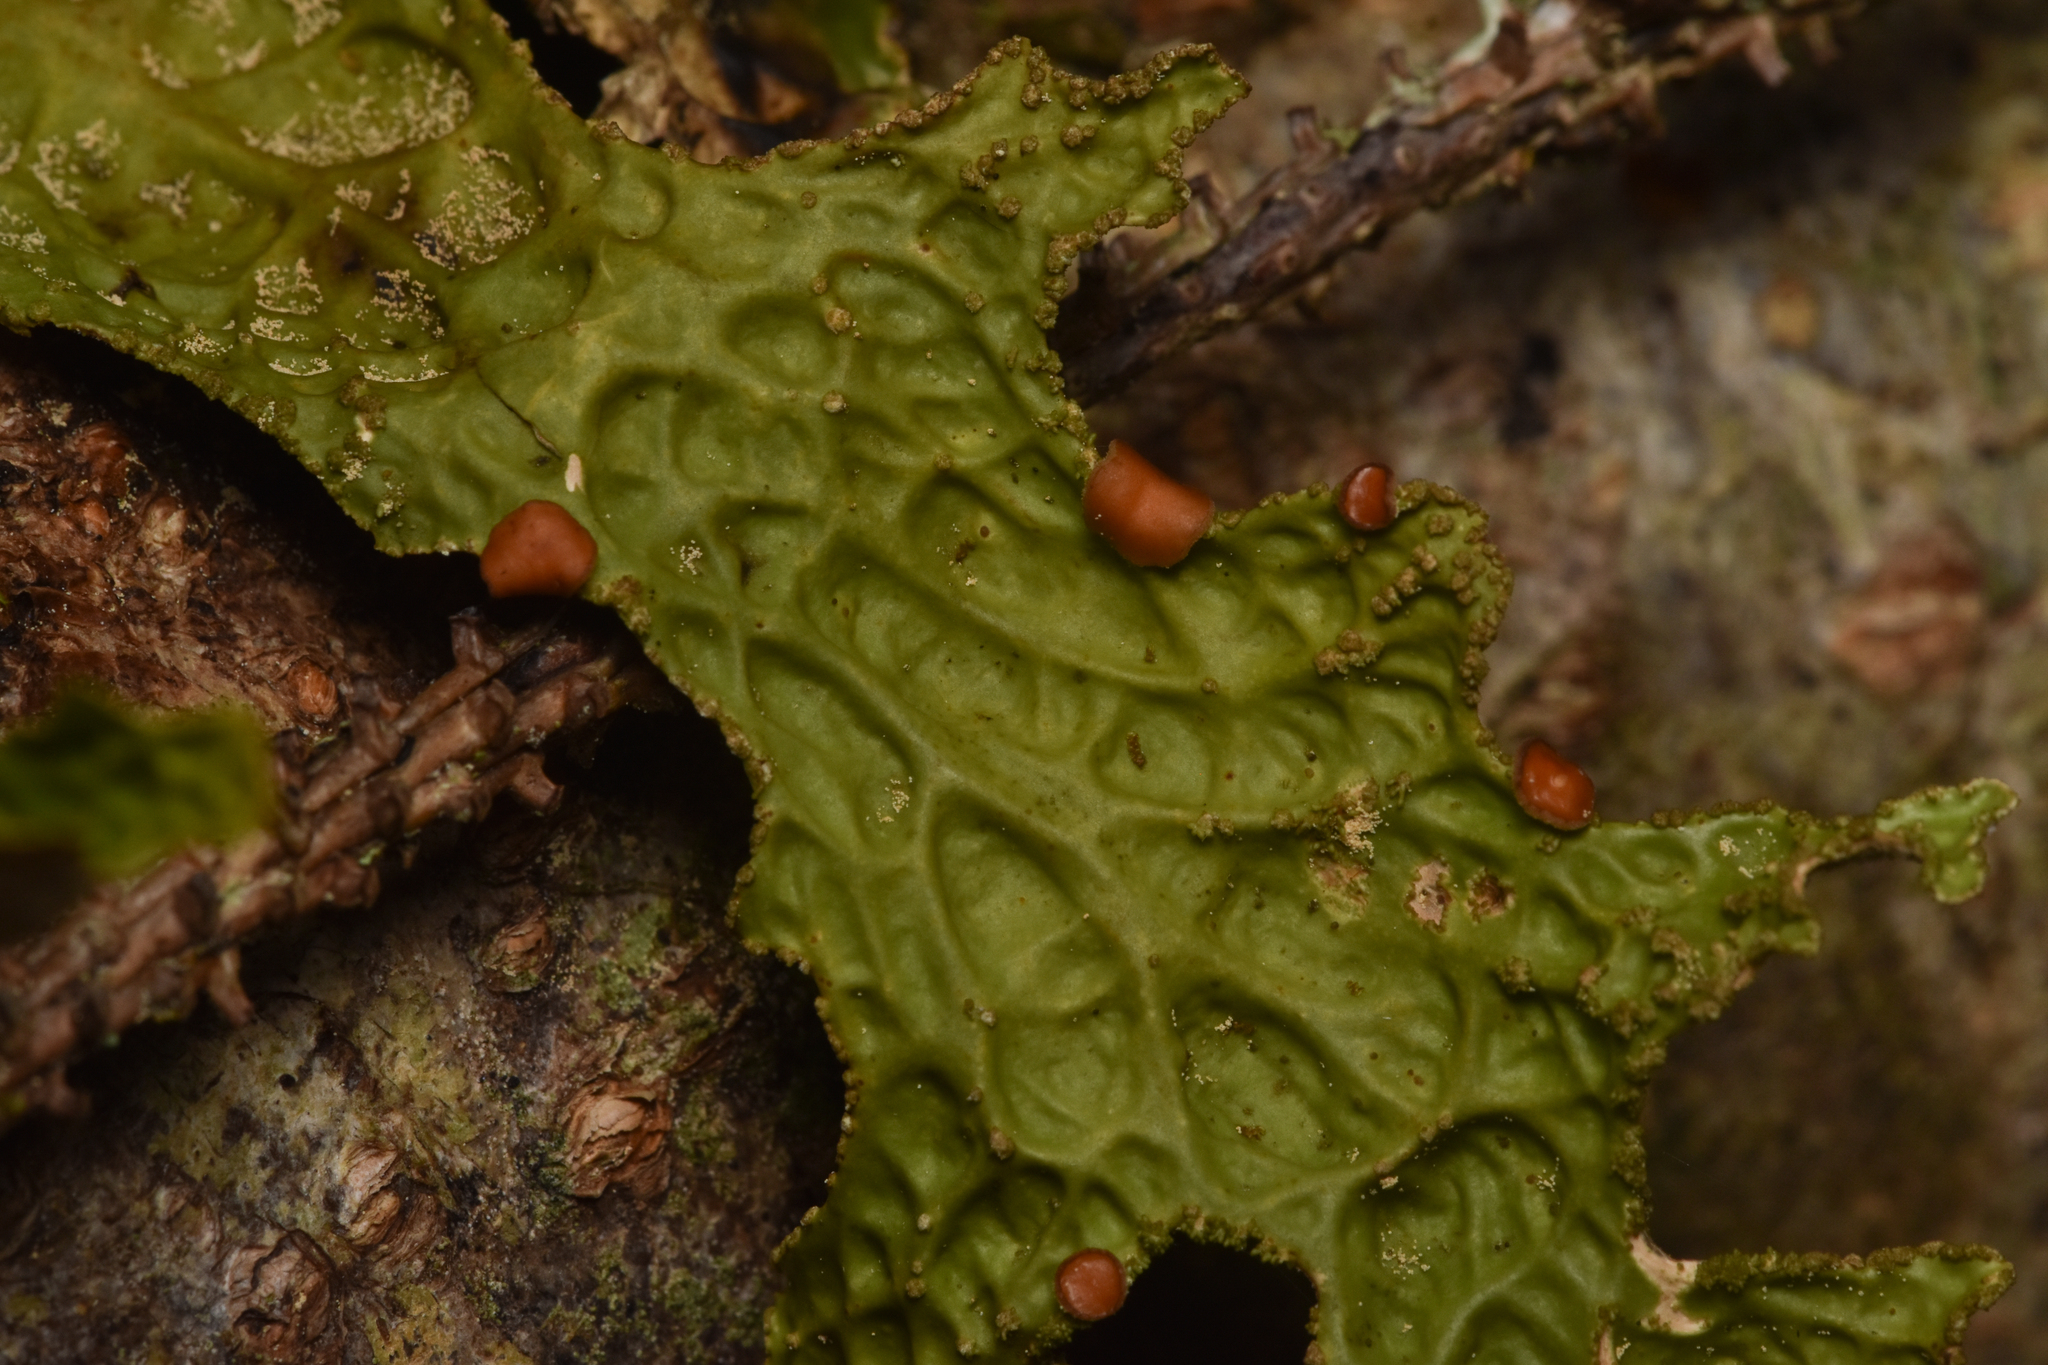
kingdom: Fungi
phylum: Ascomycota
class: Lecanoromycetes
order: Peltigerales
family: Lobariaceae
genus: Lobaria
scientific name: Lobaria pulmonaria
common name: Lungwort
